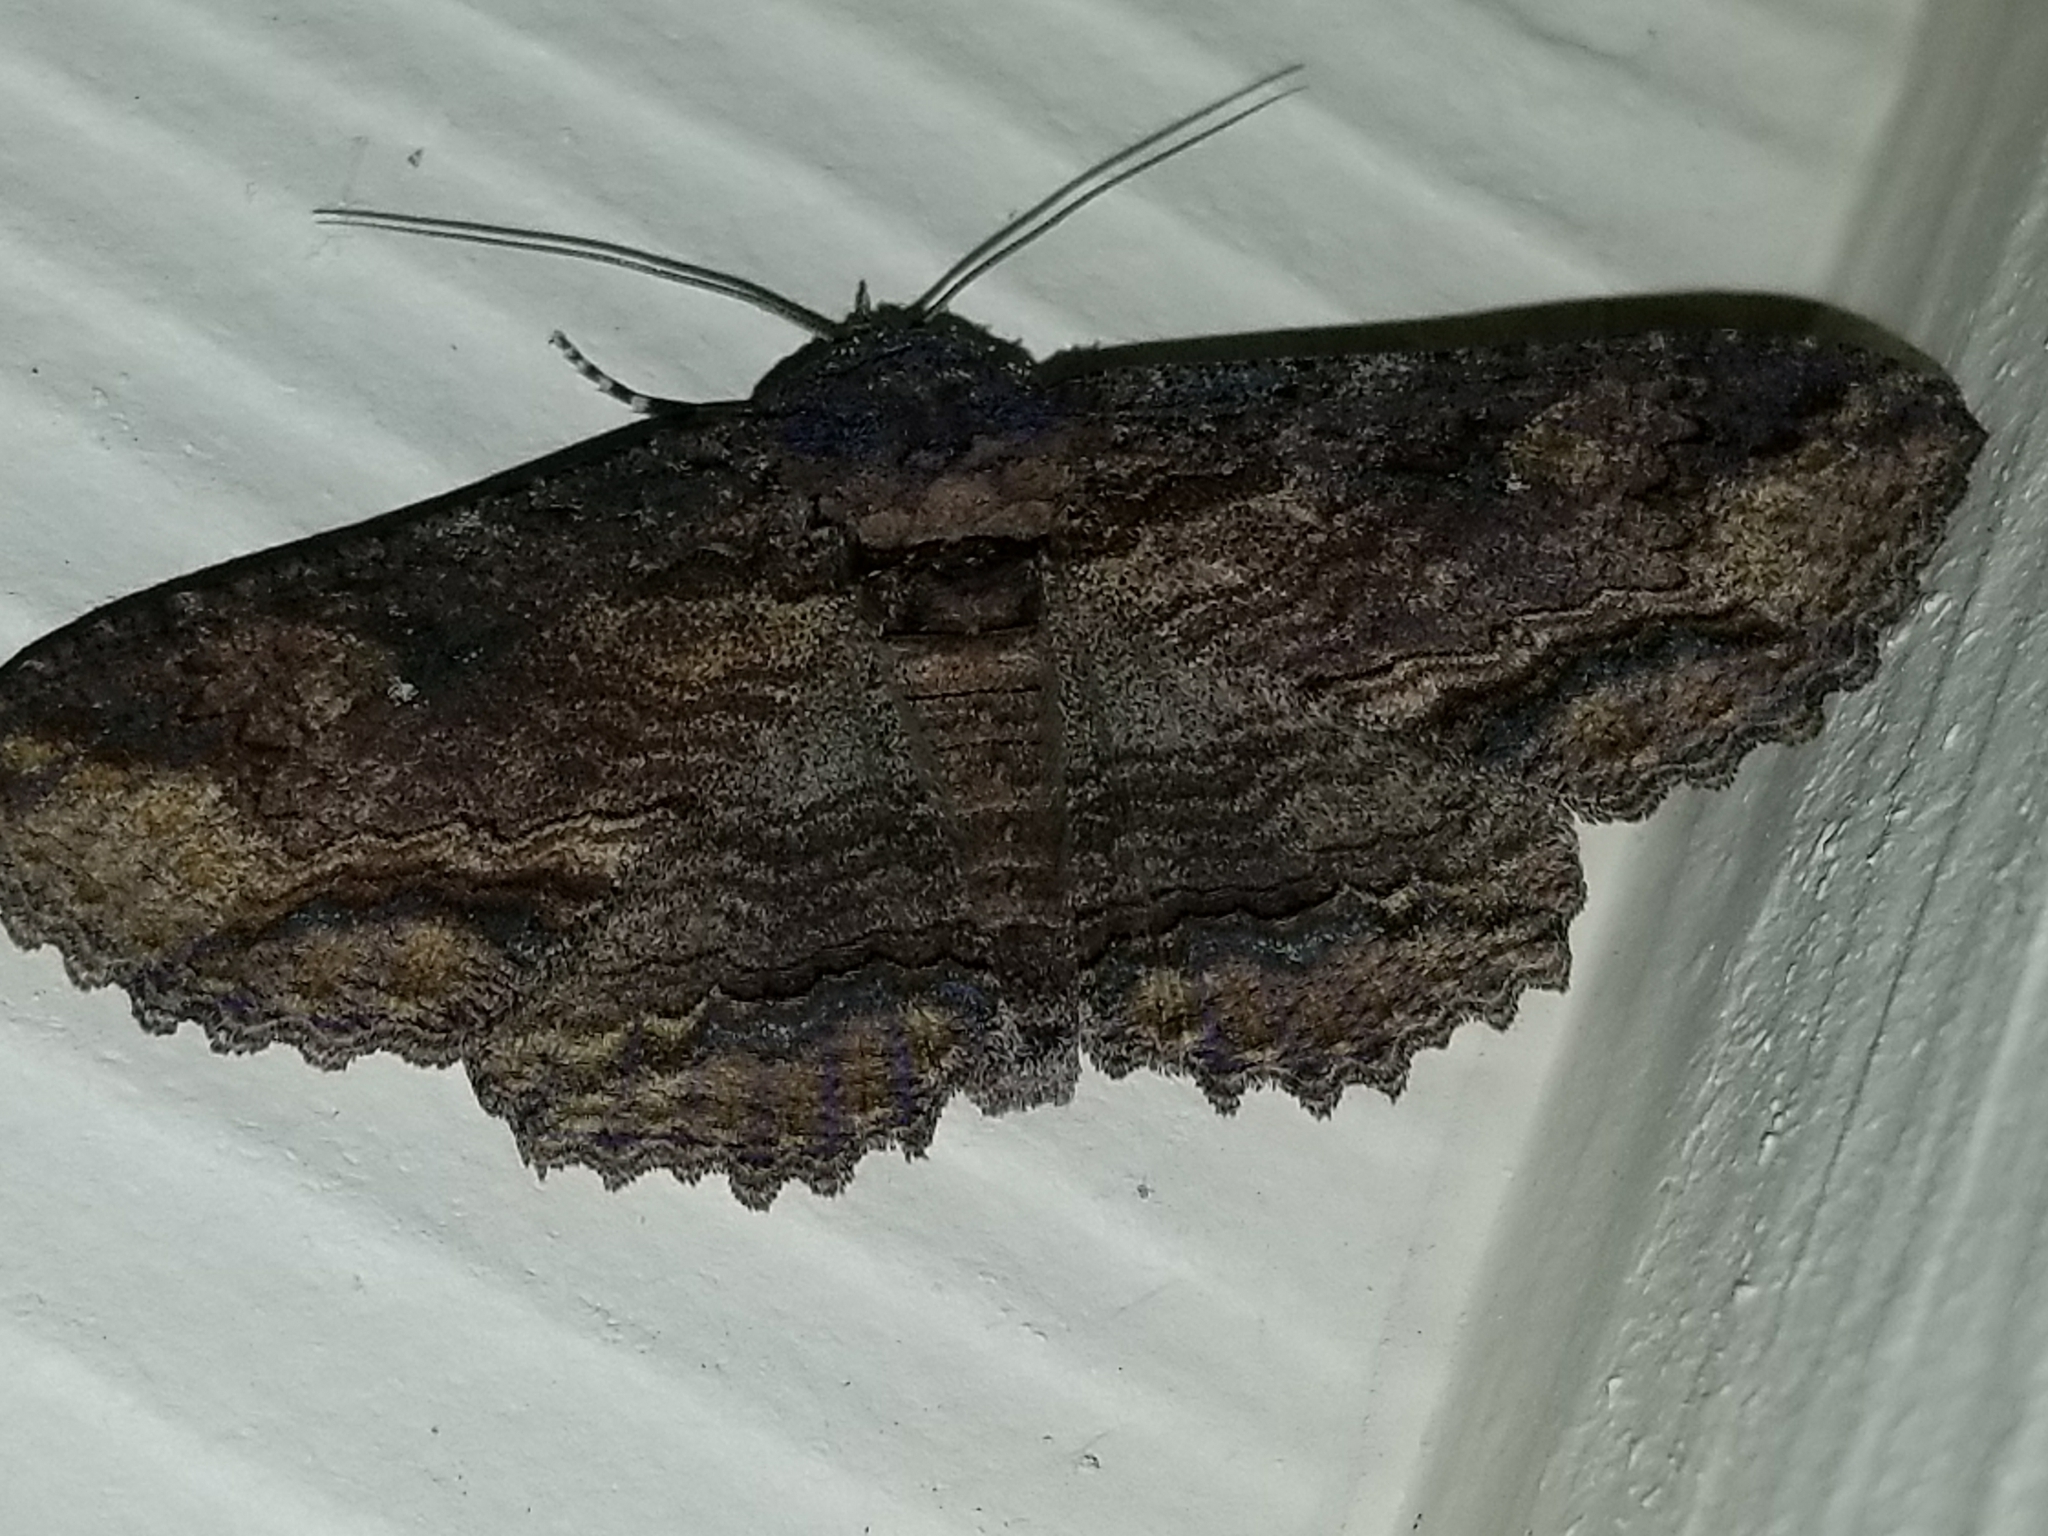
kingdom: Animalia
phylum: Arthropoda
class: Insecta
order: Lepidoptera
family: Erebidae
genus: Zale
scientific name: Zale lunata
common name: Lunate zale moth
